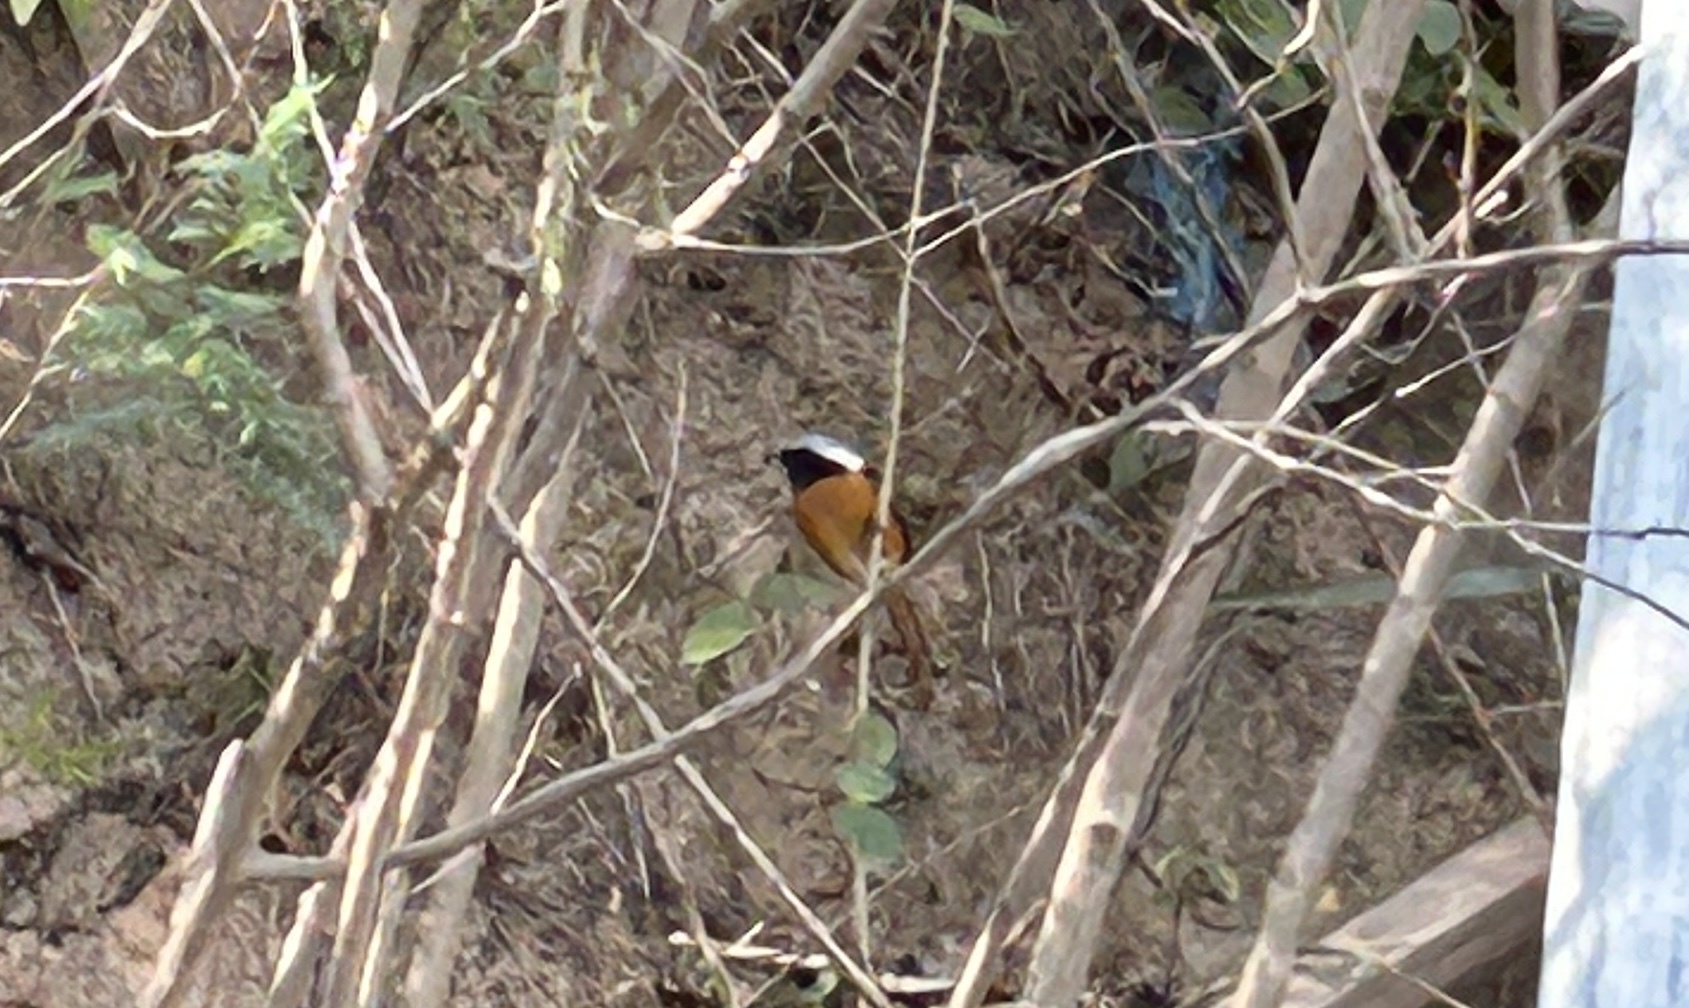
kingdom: Animalia
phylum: Chordata
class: Aves
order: Passeriformes
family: Muscicapidae
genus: Phoenicurus
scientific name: Phoenicurus auroreus
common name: Daurian redstart
